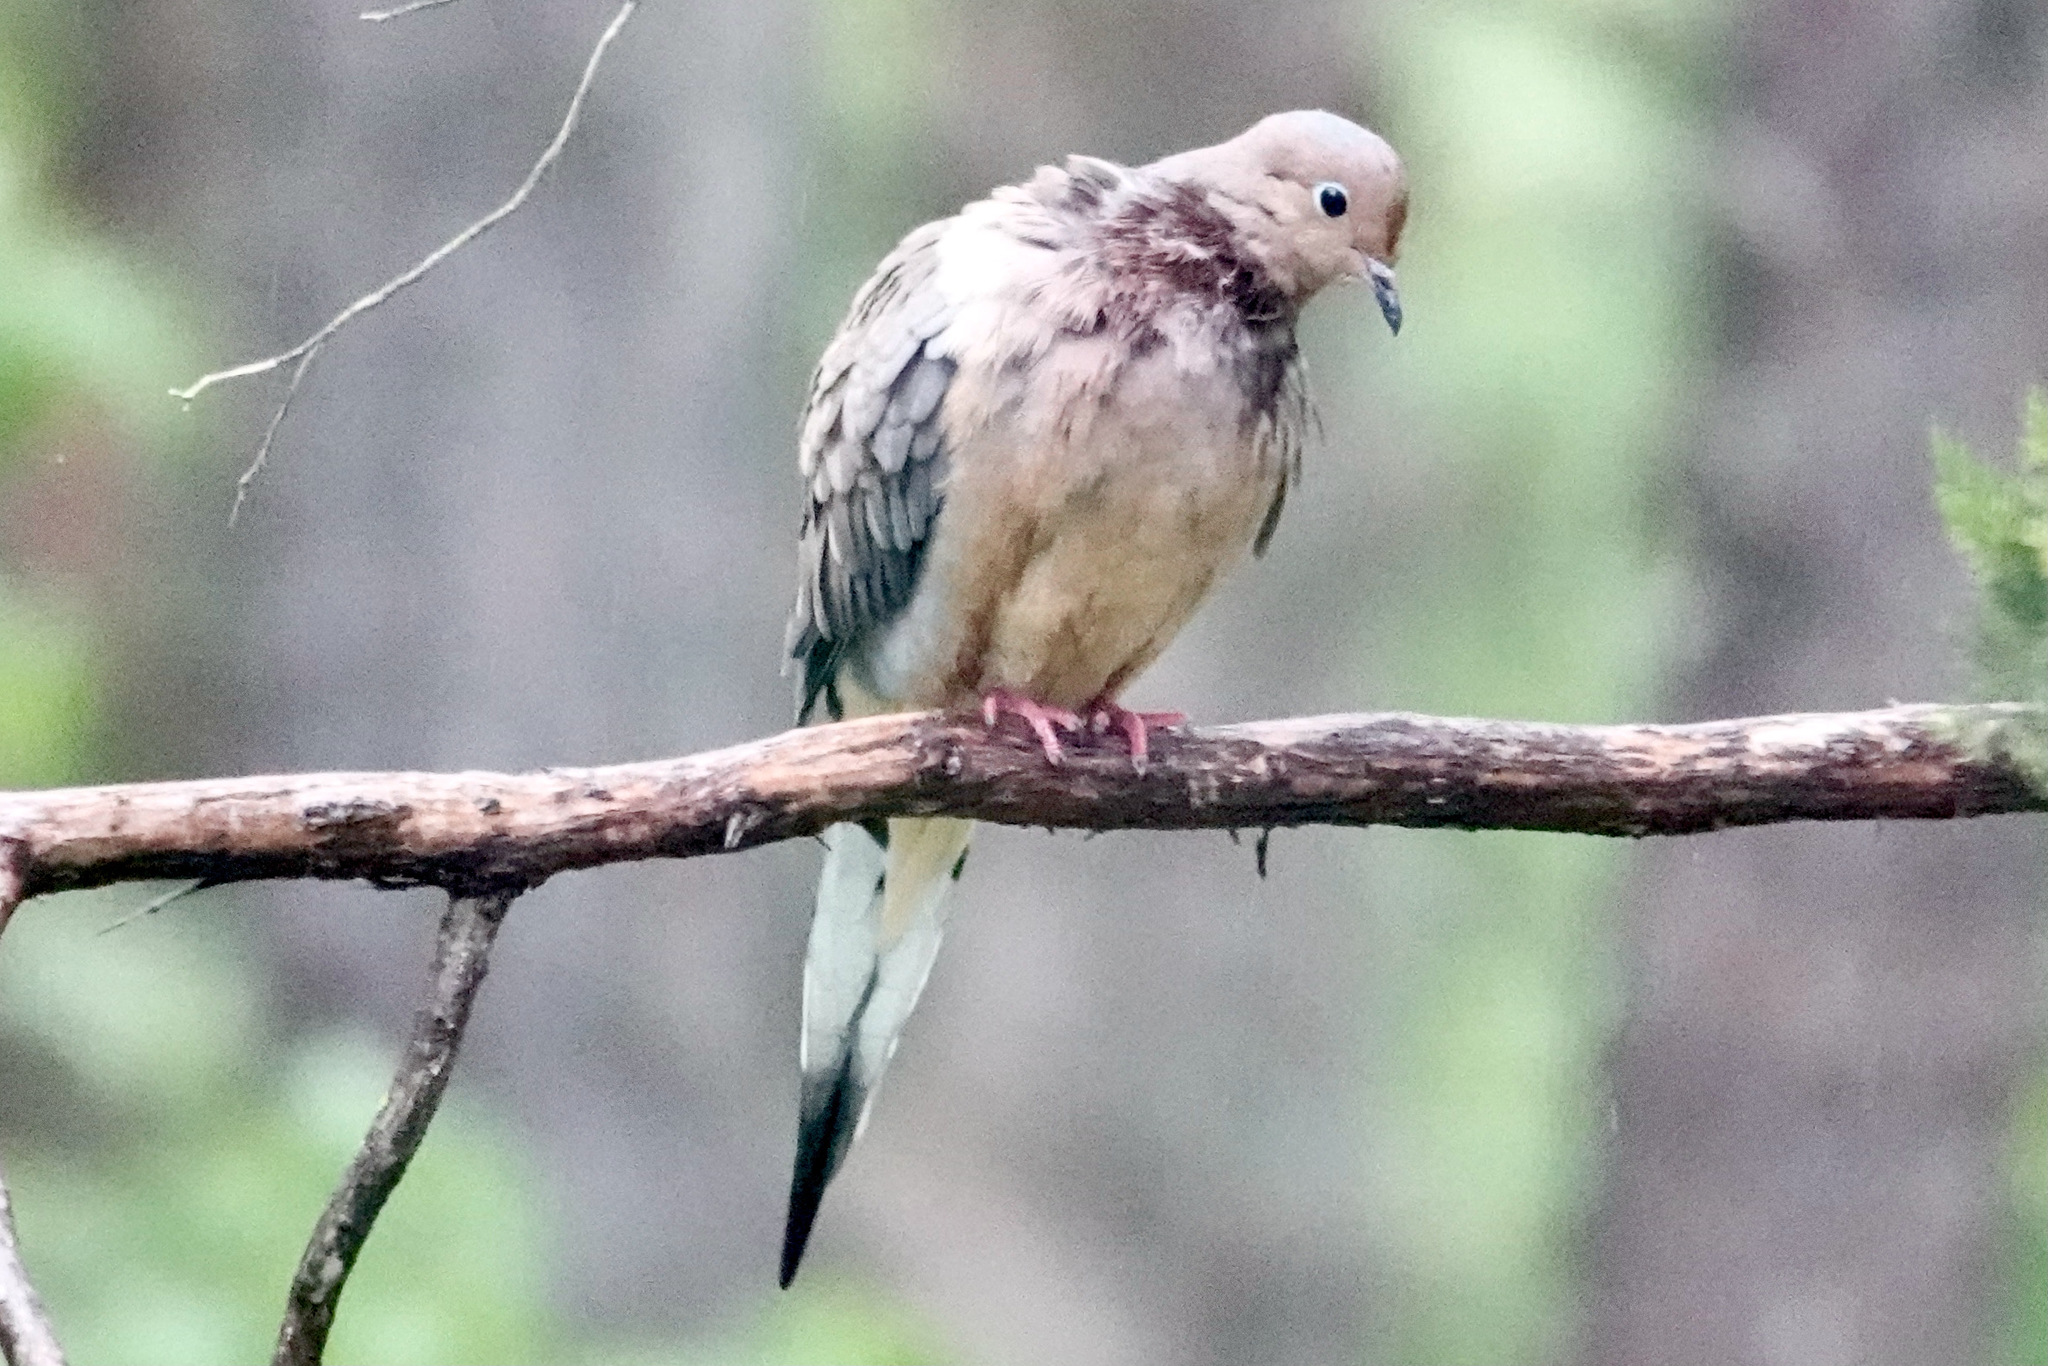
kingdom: Animalia
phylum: Chordata
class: Aves
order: Columbiformes
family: Columbidae
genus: Zenaida
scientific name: Zenaida macroura
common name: Mourning dove
